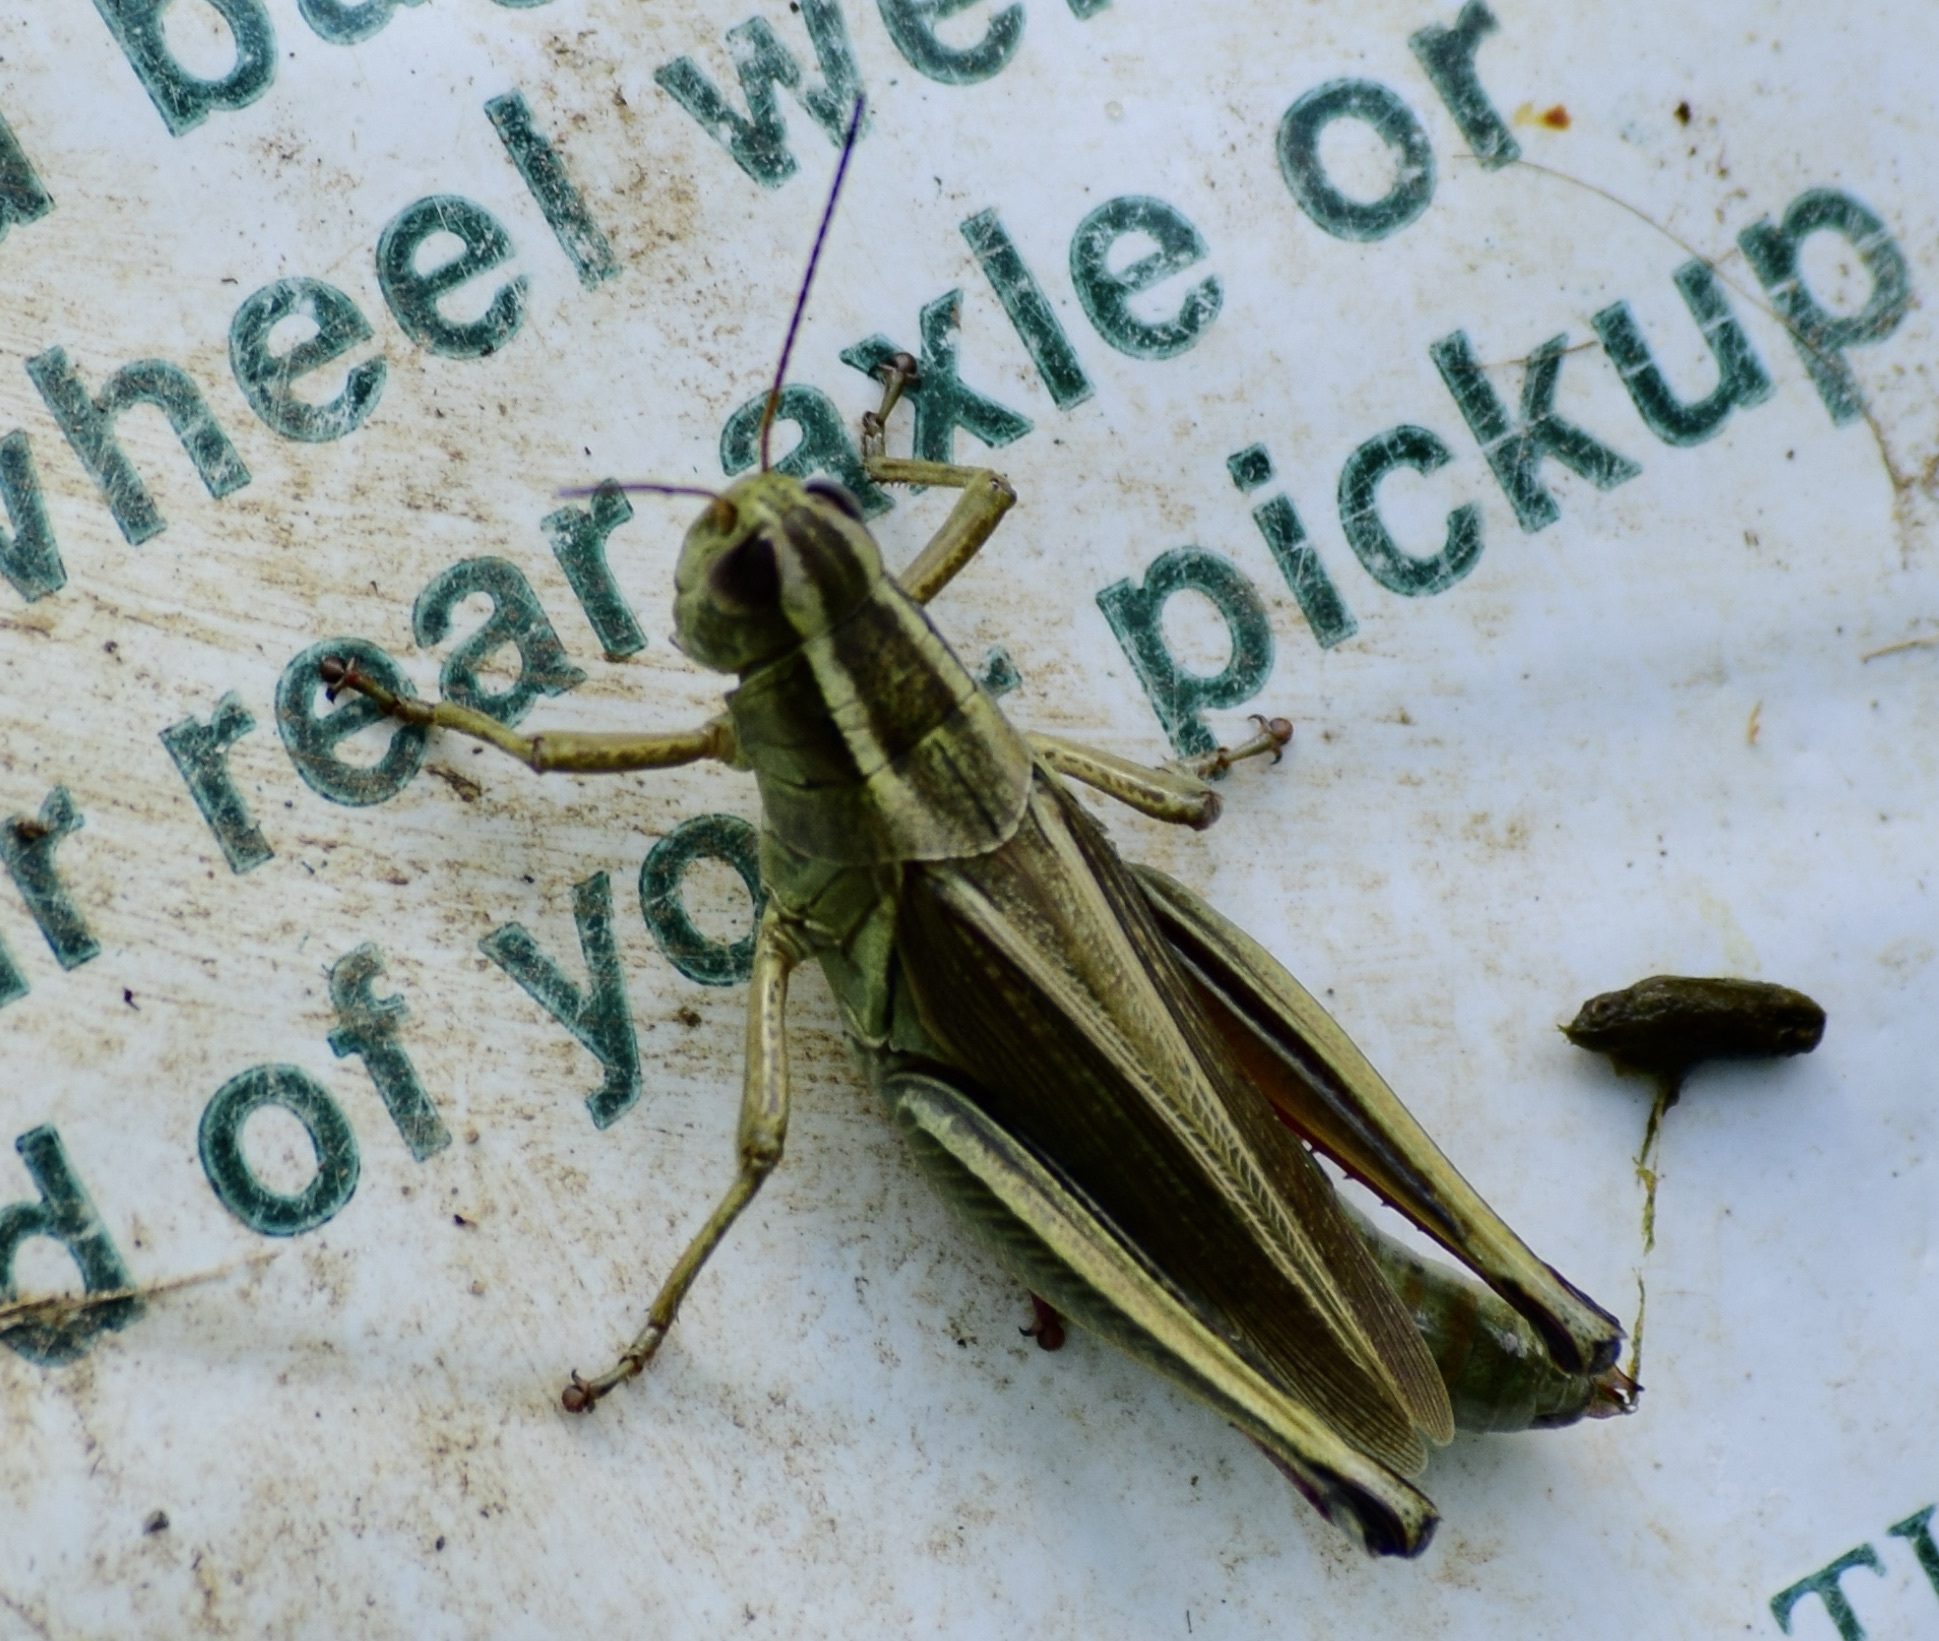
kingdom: Animalia
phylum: Arthropoda
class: Insecta
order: Orthoptera
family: Acrididae
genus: Melanoplus
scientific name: Melanoplus bivittatus
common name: Two-striped grasshopper
